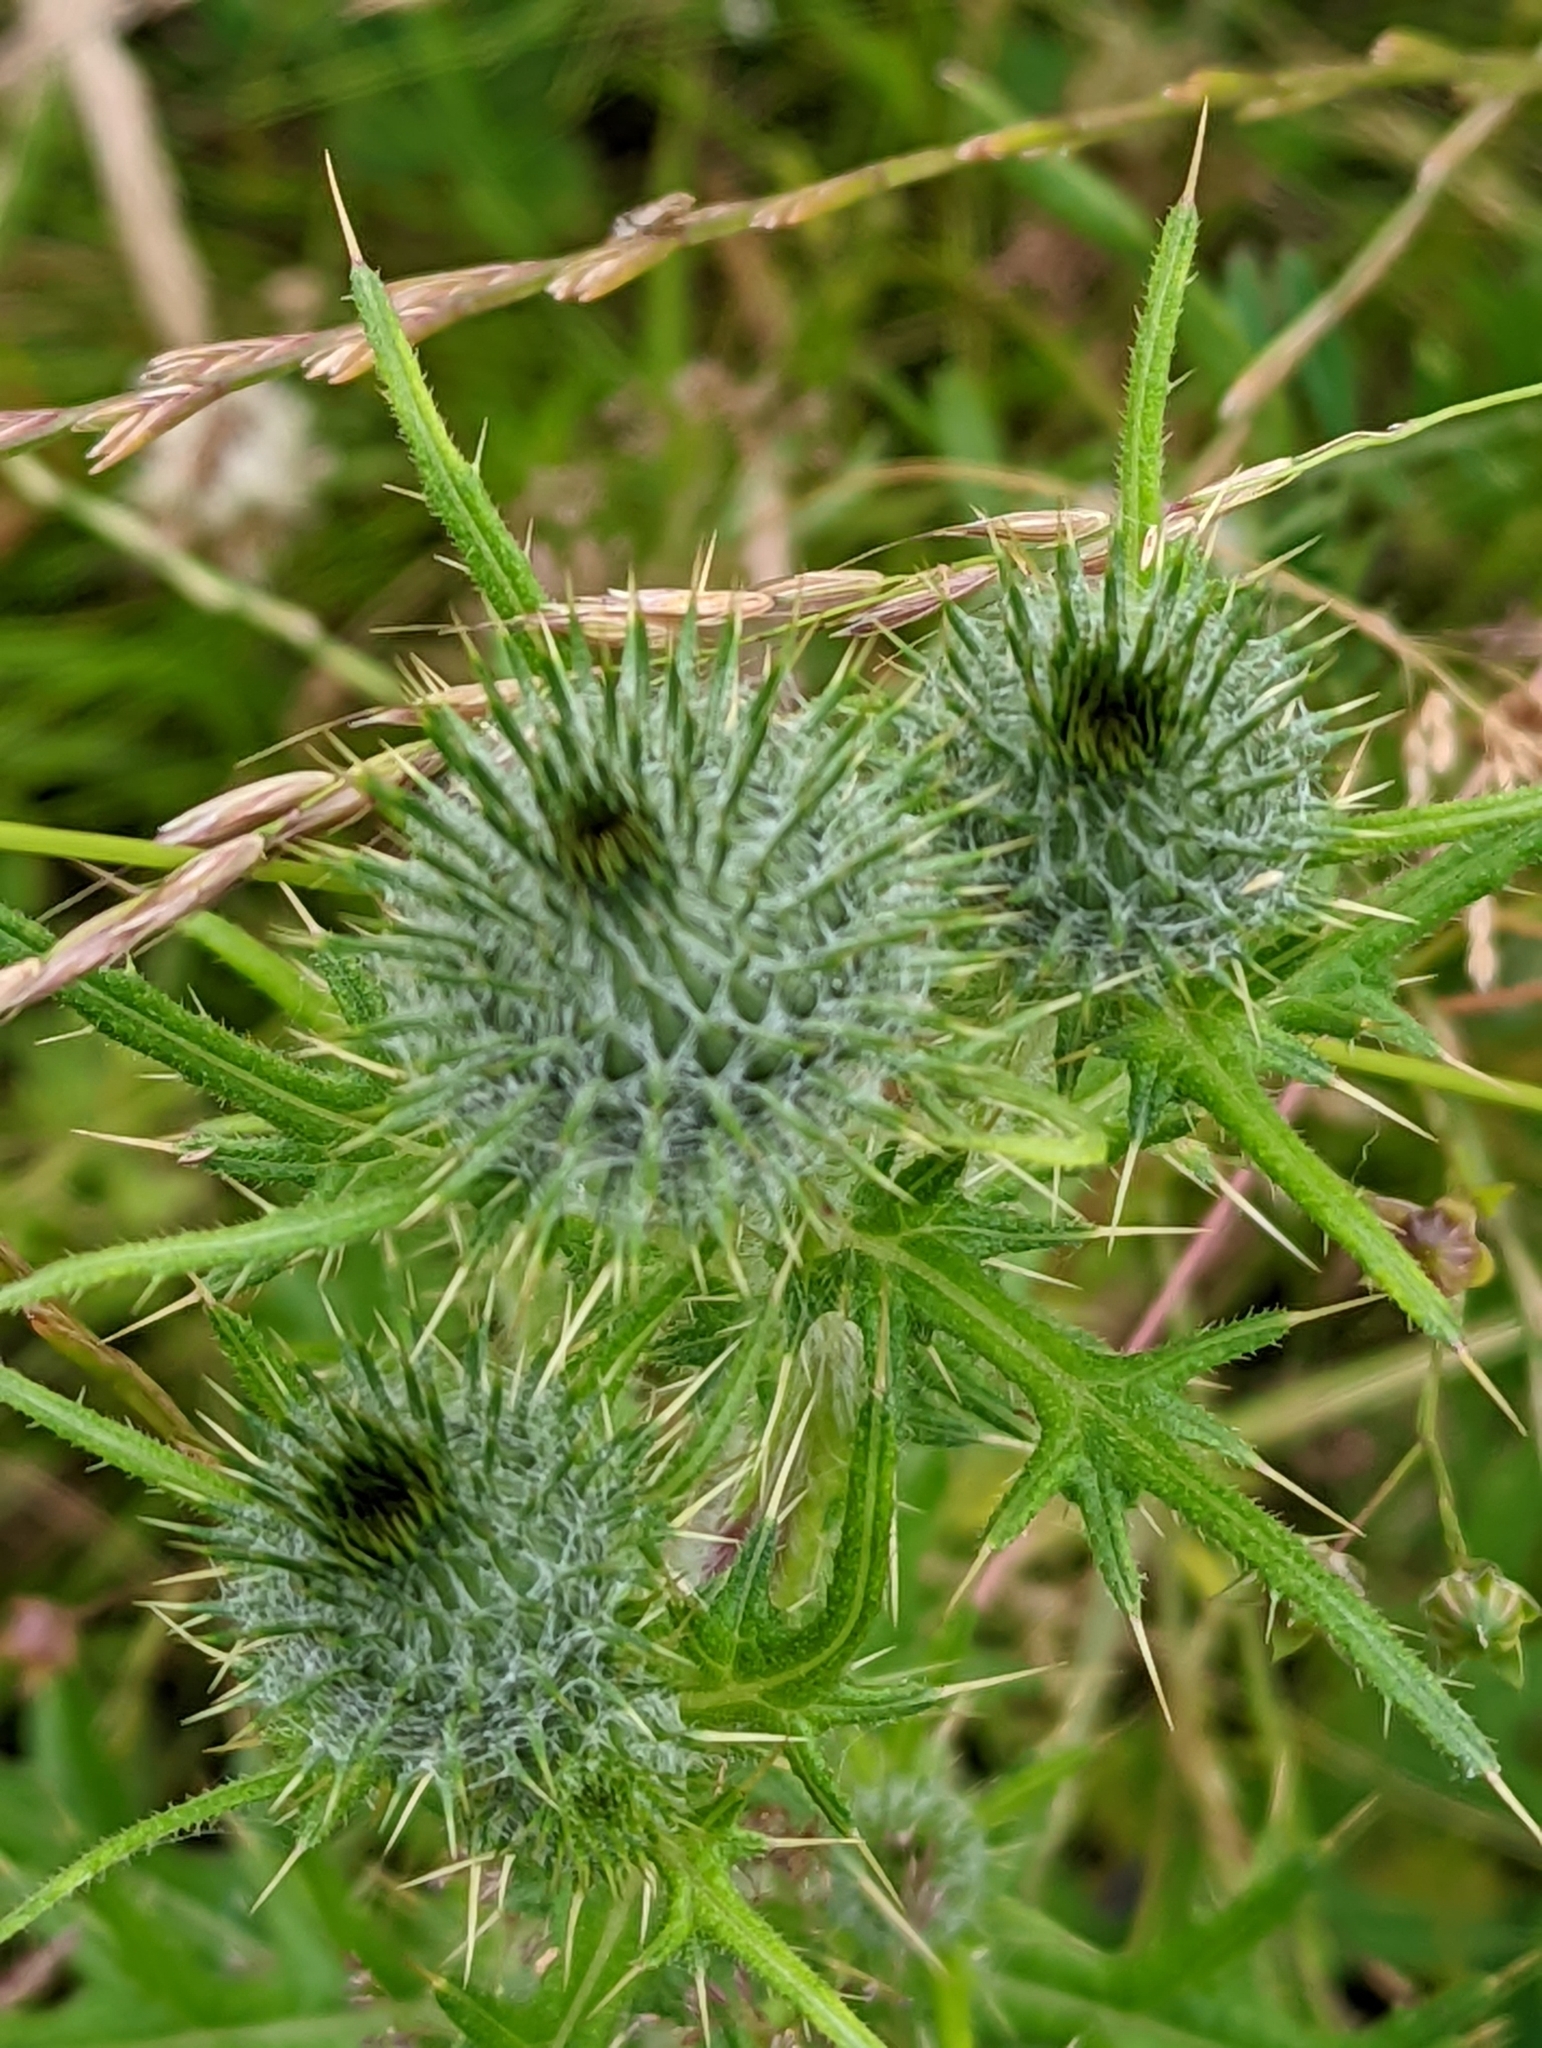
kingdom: Plantae
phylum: Tracheophyta
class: Magnoliopsida
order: Asterales
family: Asteraceae
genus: Cirsium
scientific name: Cirsium vulgare
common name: Bull thistle
